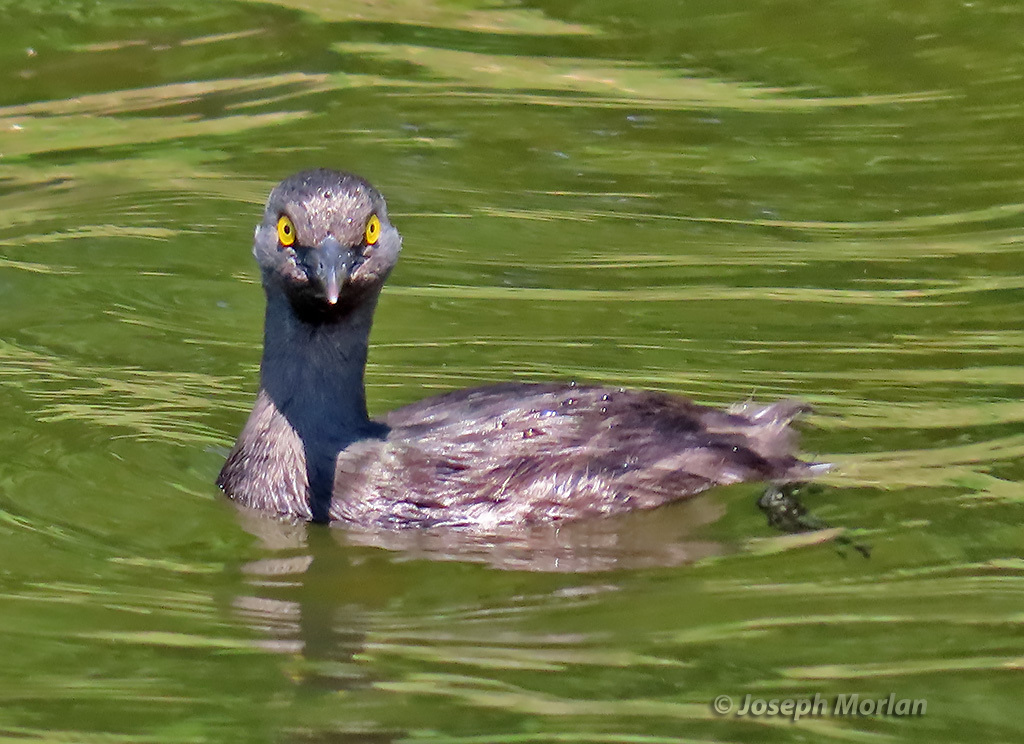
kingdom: Animalia
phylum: Chordata
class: Aves
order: Podicipediformes
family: Podicipedidae
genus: Tachybaptus
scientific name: Tachybaptus dominicus
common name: Least grebe
